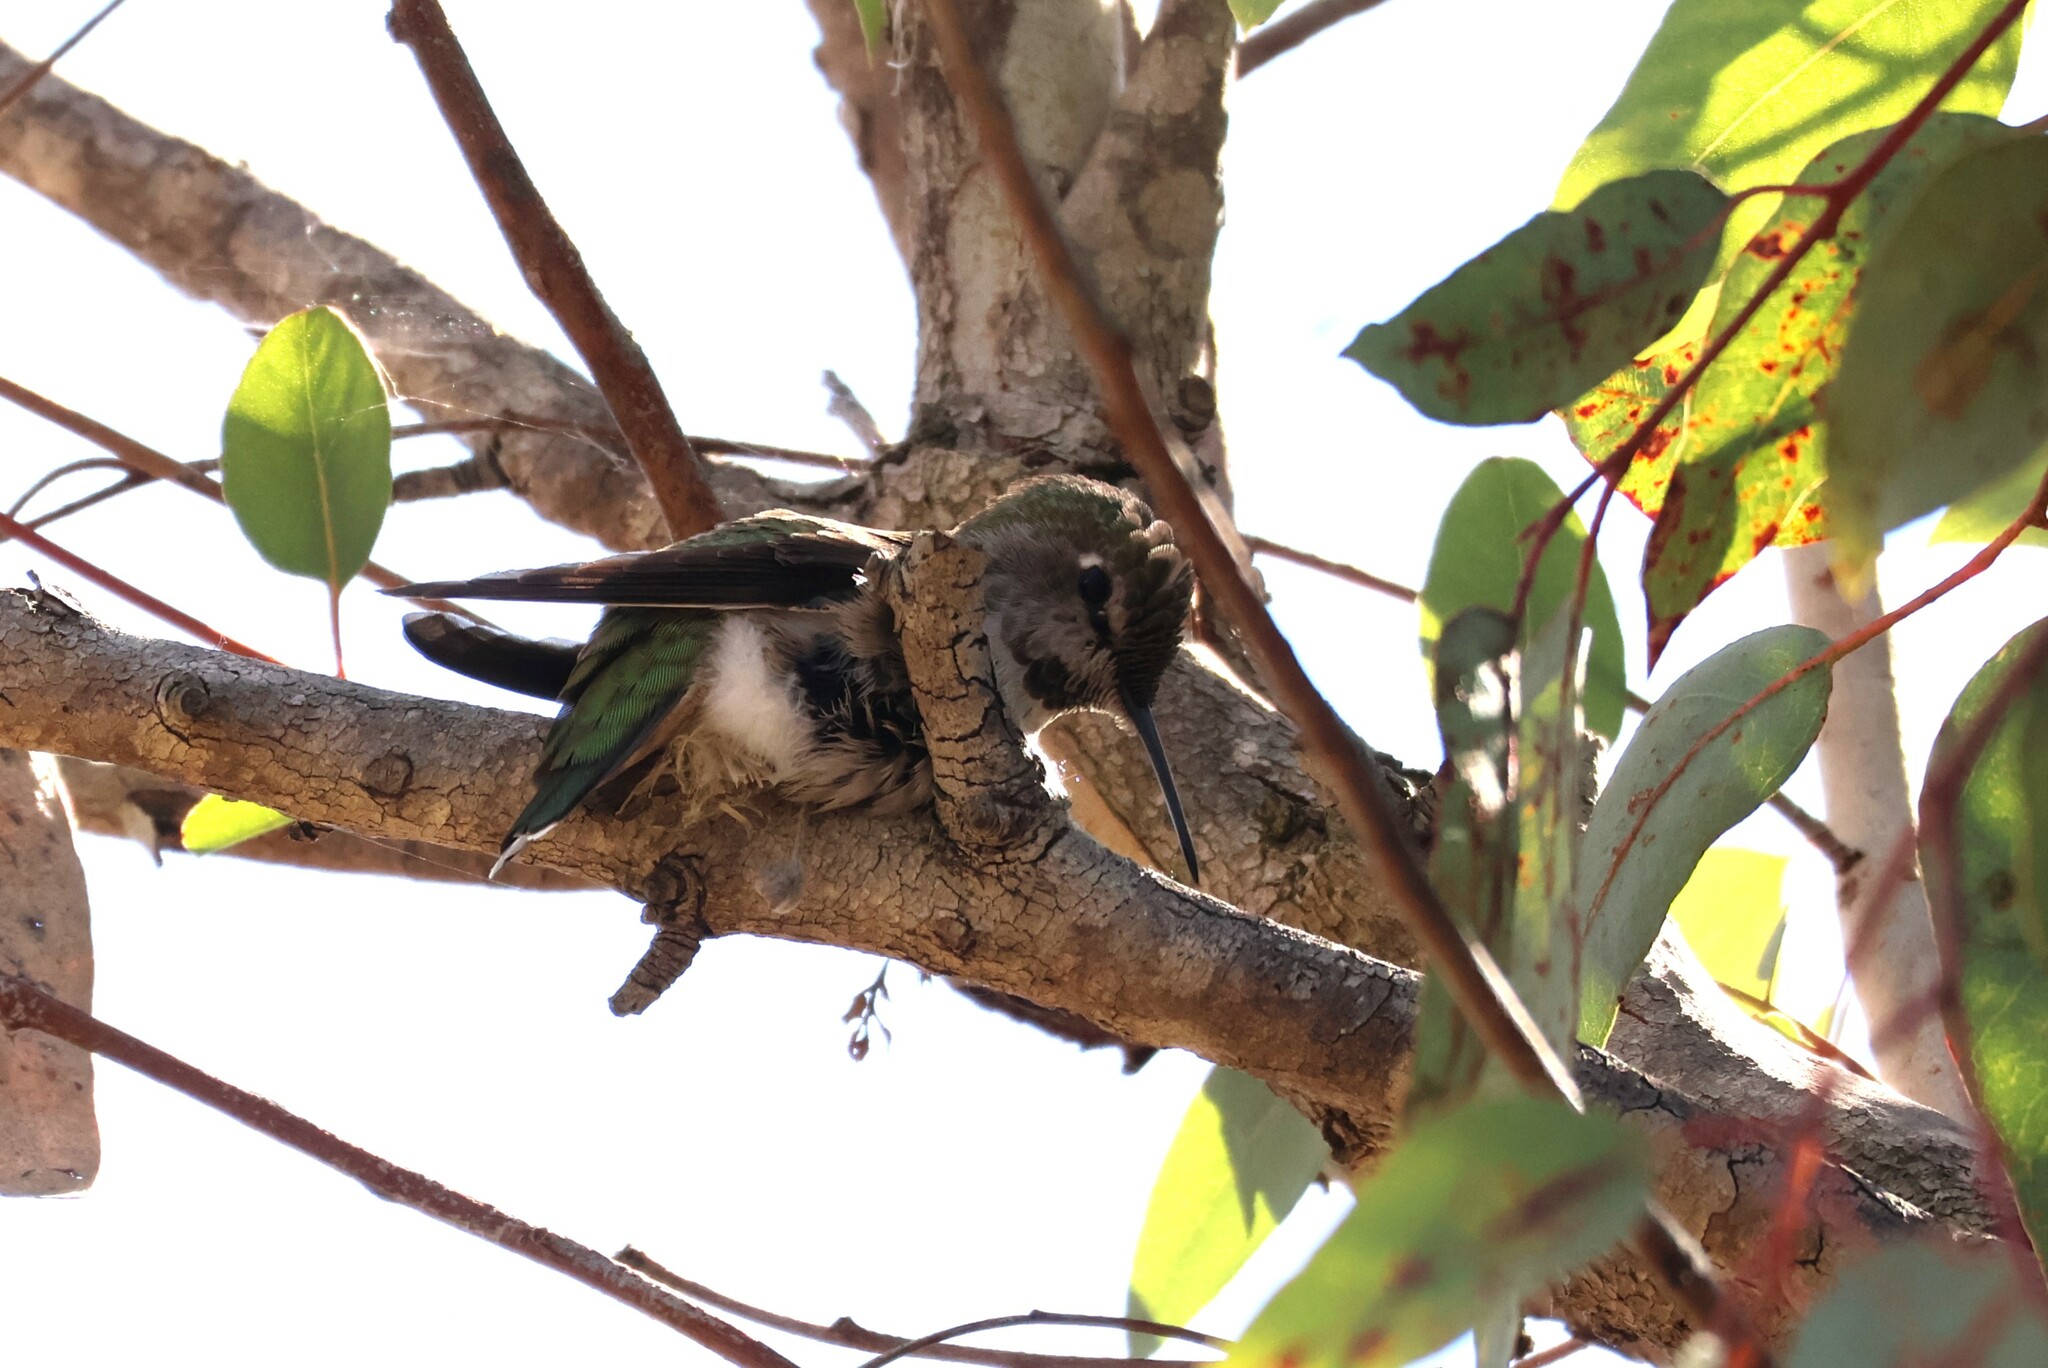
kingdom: Animalia
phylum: Chordata
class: Aves
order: Apodiformes
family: Trochilidae
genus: Calypte
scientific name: Calypte anna
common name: Anna's hummingbird
